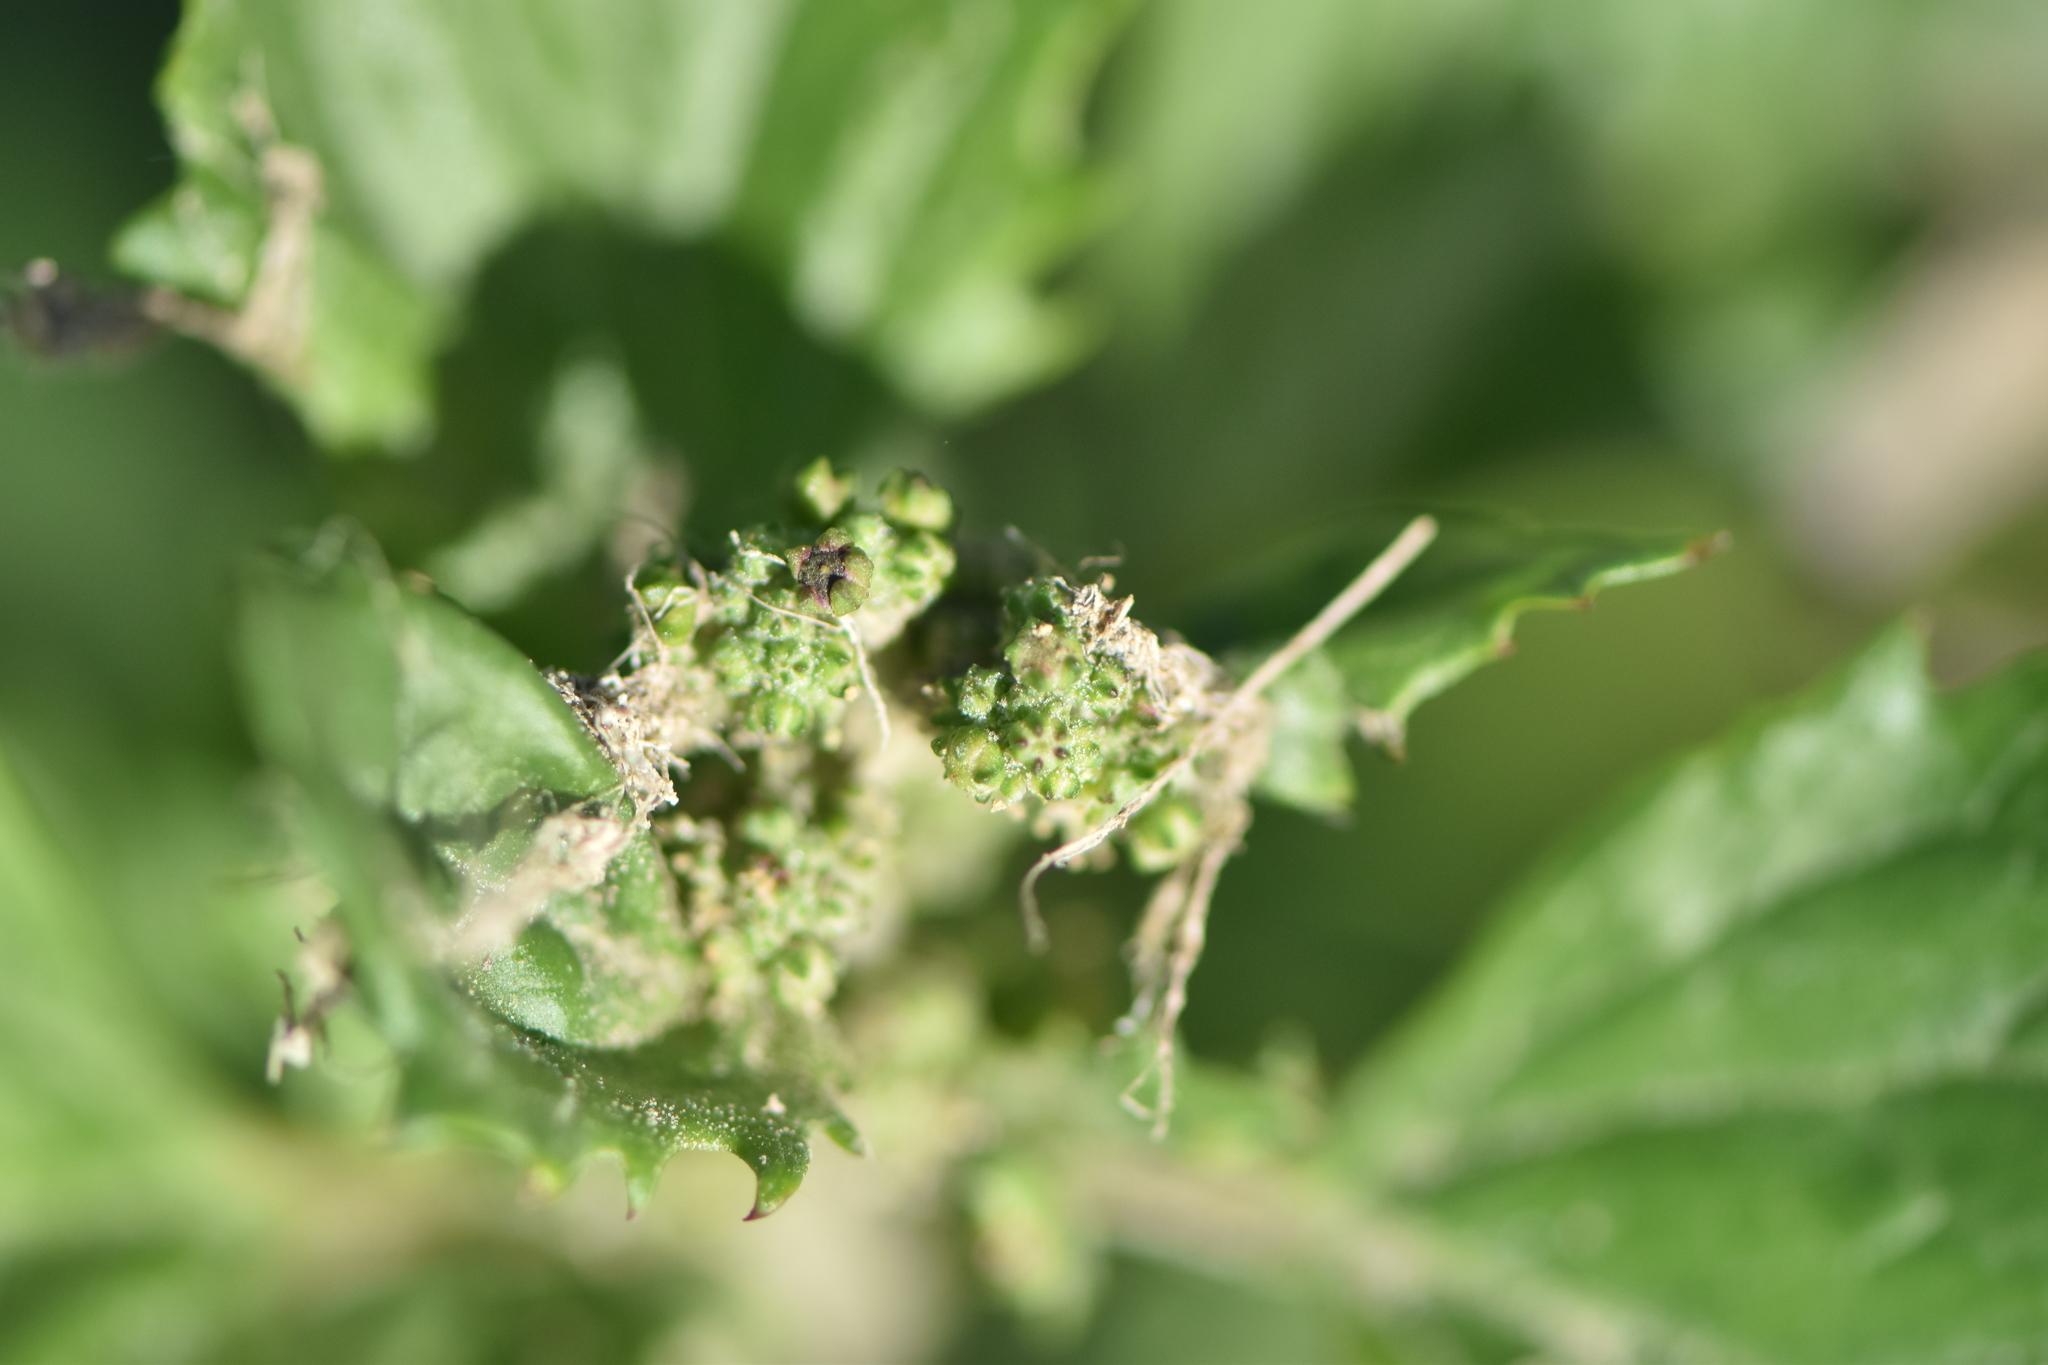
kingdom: Plantae
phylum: Tracheophyta
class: Magnoliopsida
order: Caryophyllales
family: Amaranthaceae
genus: Chenopodiastrum
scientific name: Chenopodiastrum murale
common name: Sowbane
